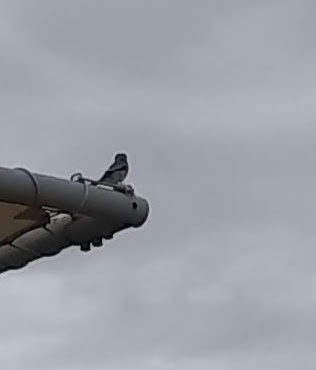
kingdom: Animalia
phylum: Chordata
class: Aves
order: Passeriformes
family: Laniidae
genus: Lanius
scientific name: Lanius ludovicianus
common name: Loggerhead shrike
